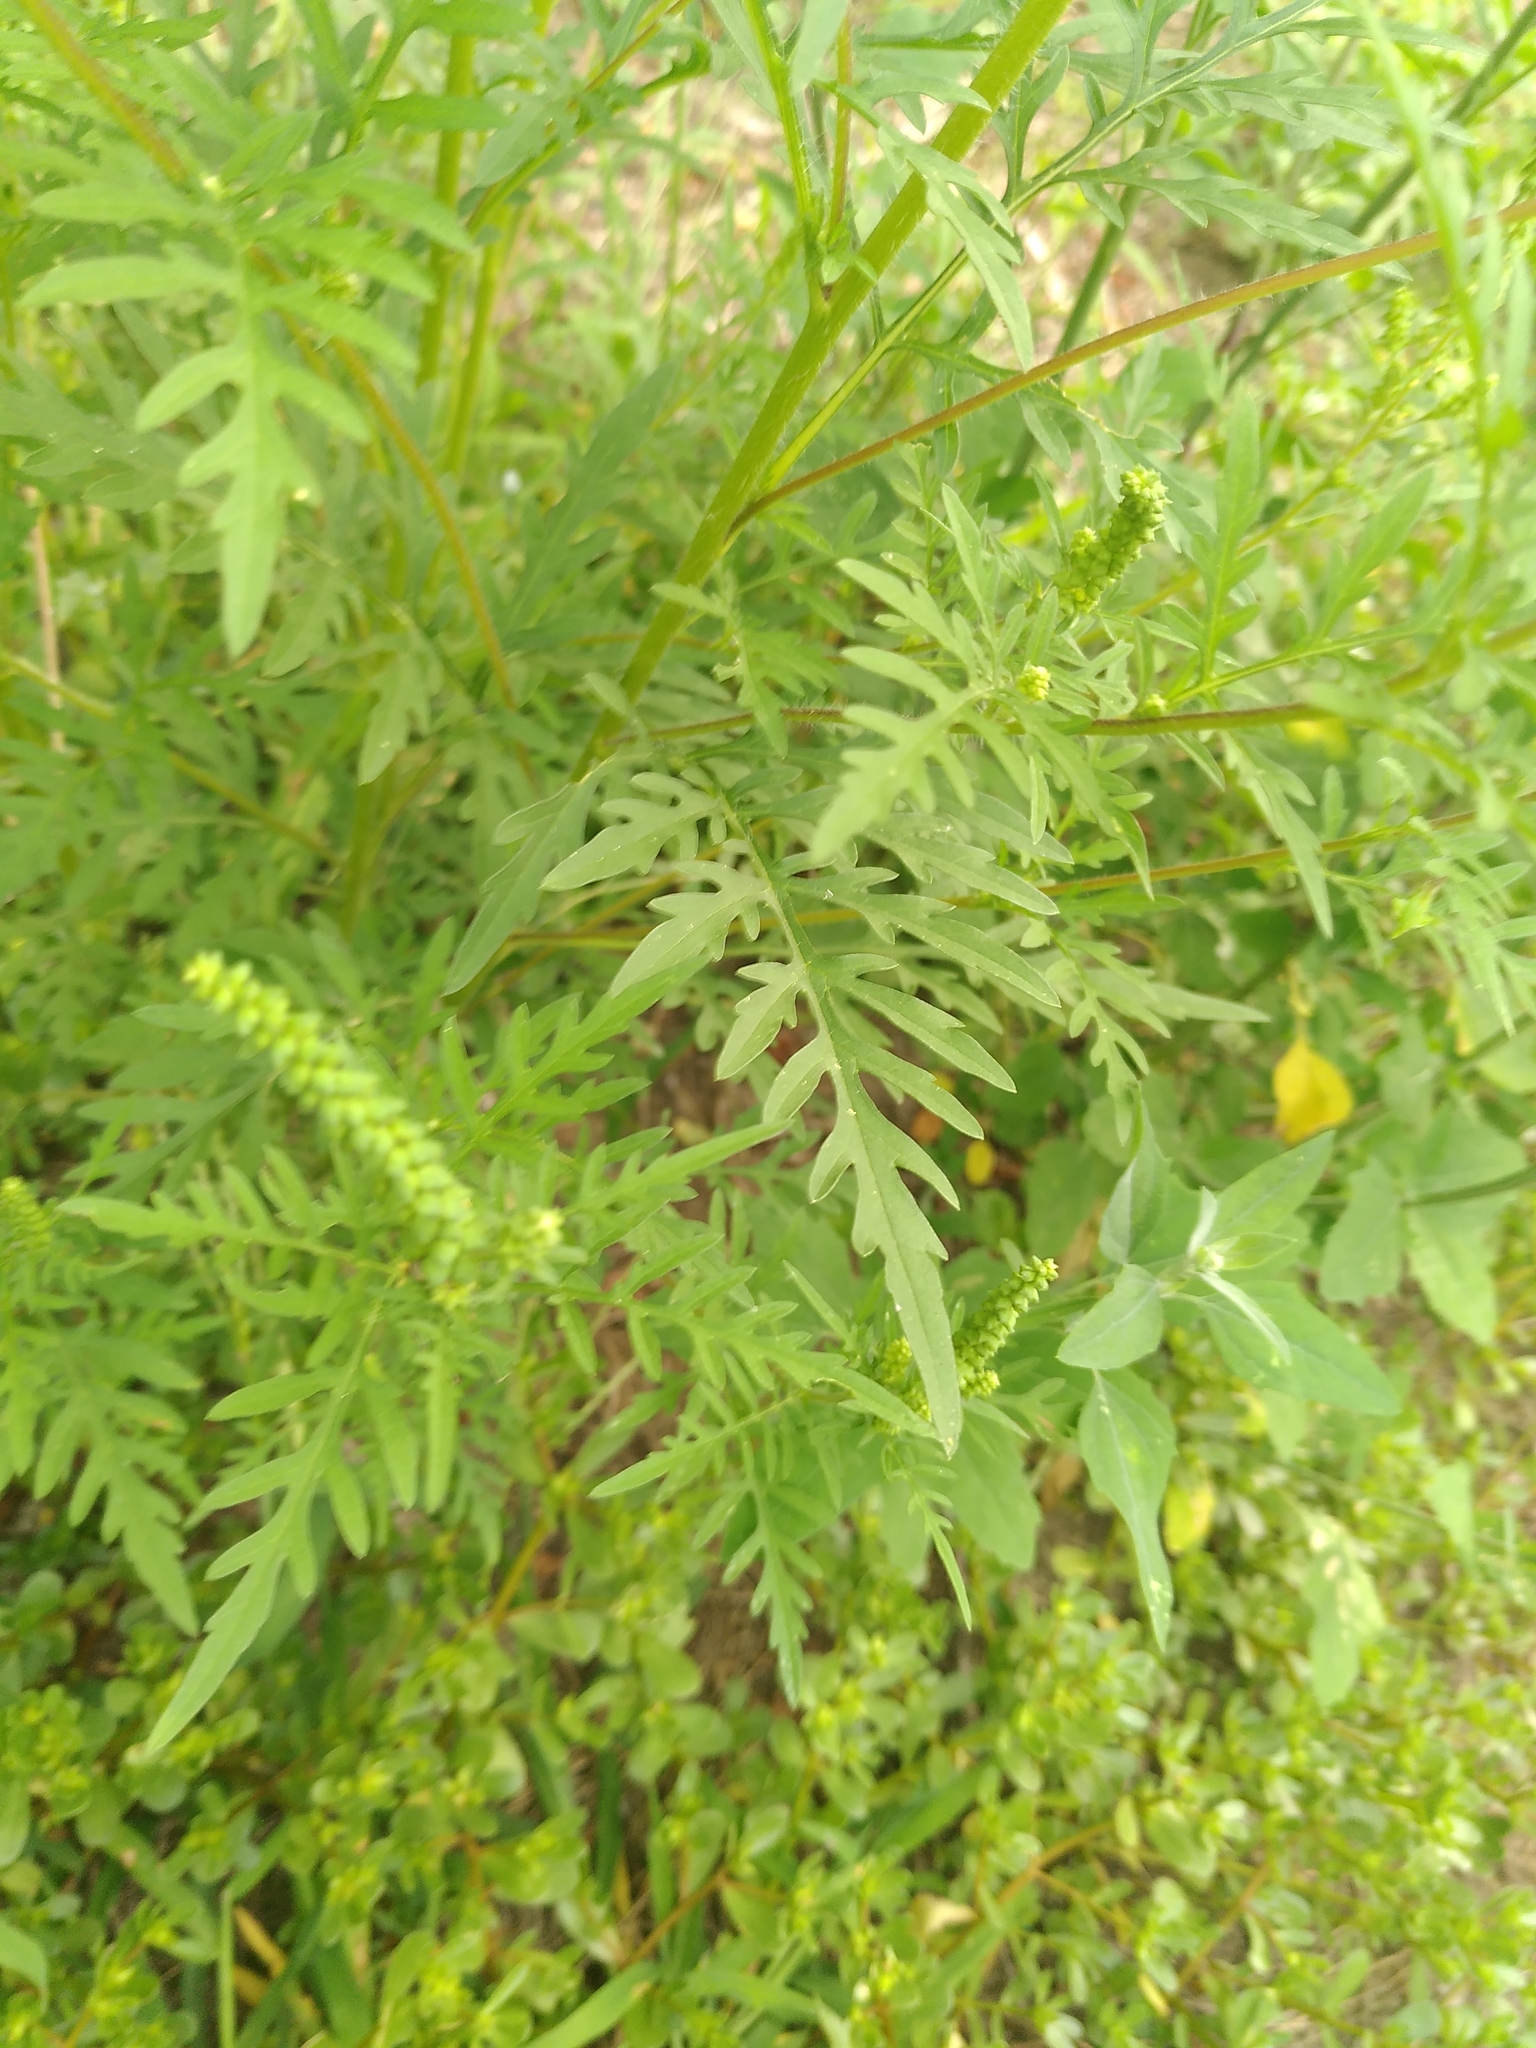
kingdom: Plantae
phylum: Tracheophyta
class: Magnoliopsida
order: Asterales
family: Asteraceae
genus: Ambrosia
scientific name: Ambrosia artemisiifolia
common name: Annual ragweed
